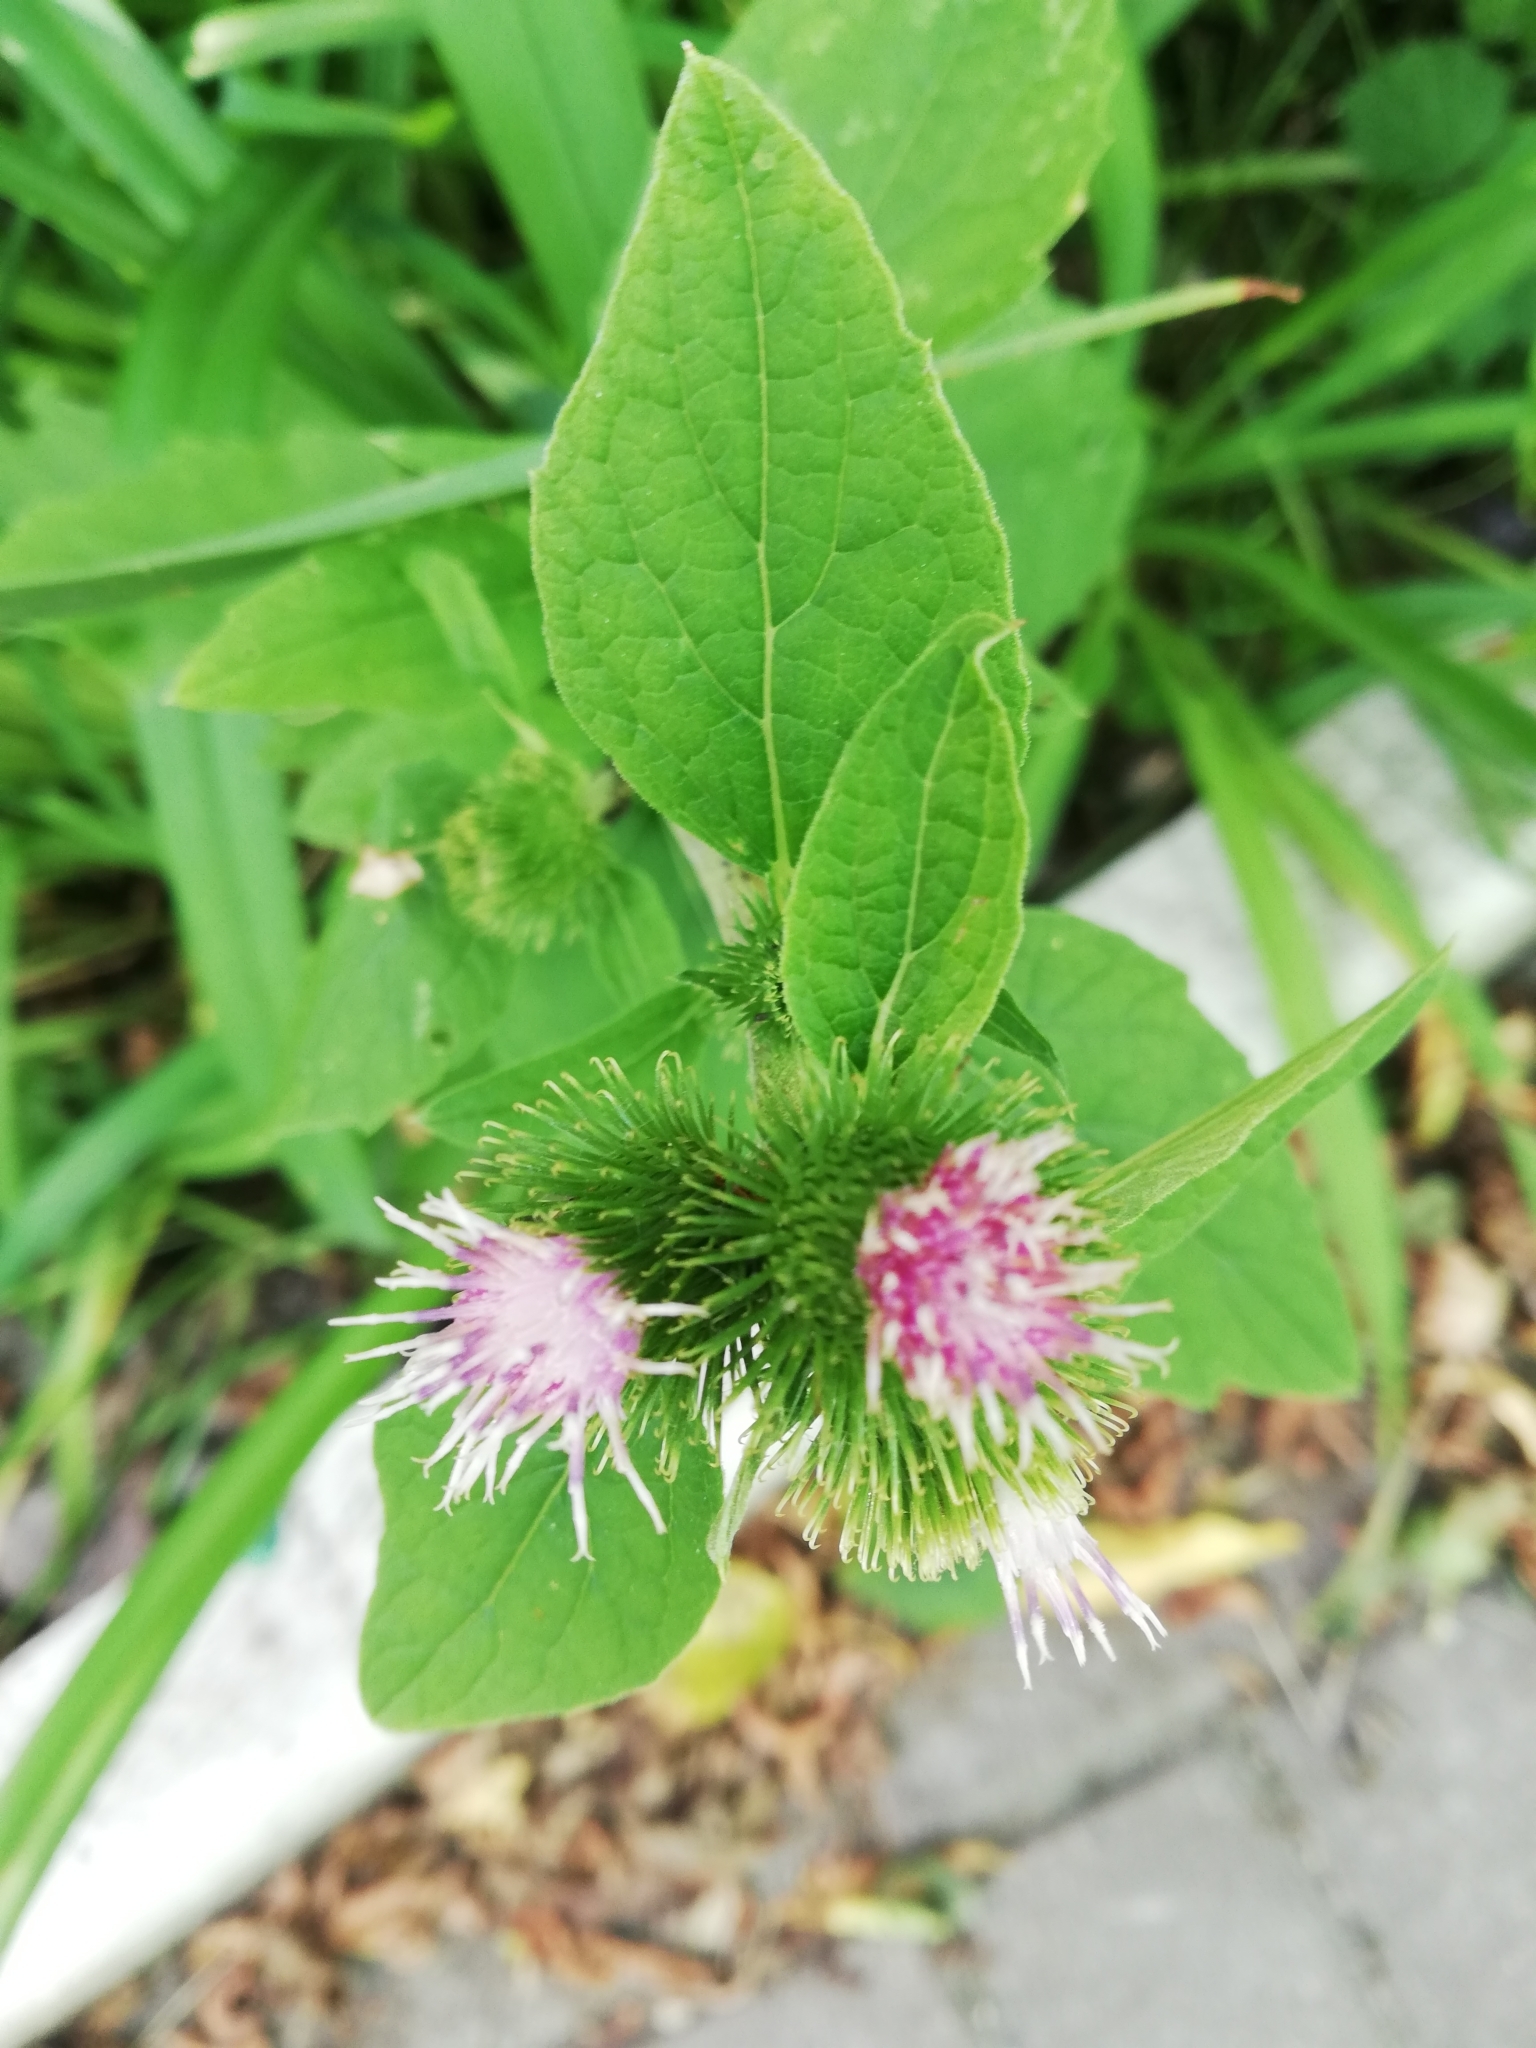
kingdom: Plantae
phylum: Tracheophyta
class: Magnoliopsida
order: Asterales
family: Asteraceae
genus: Arctium
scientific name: Arctium minus
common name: Lesser burdock
